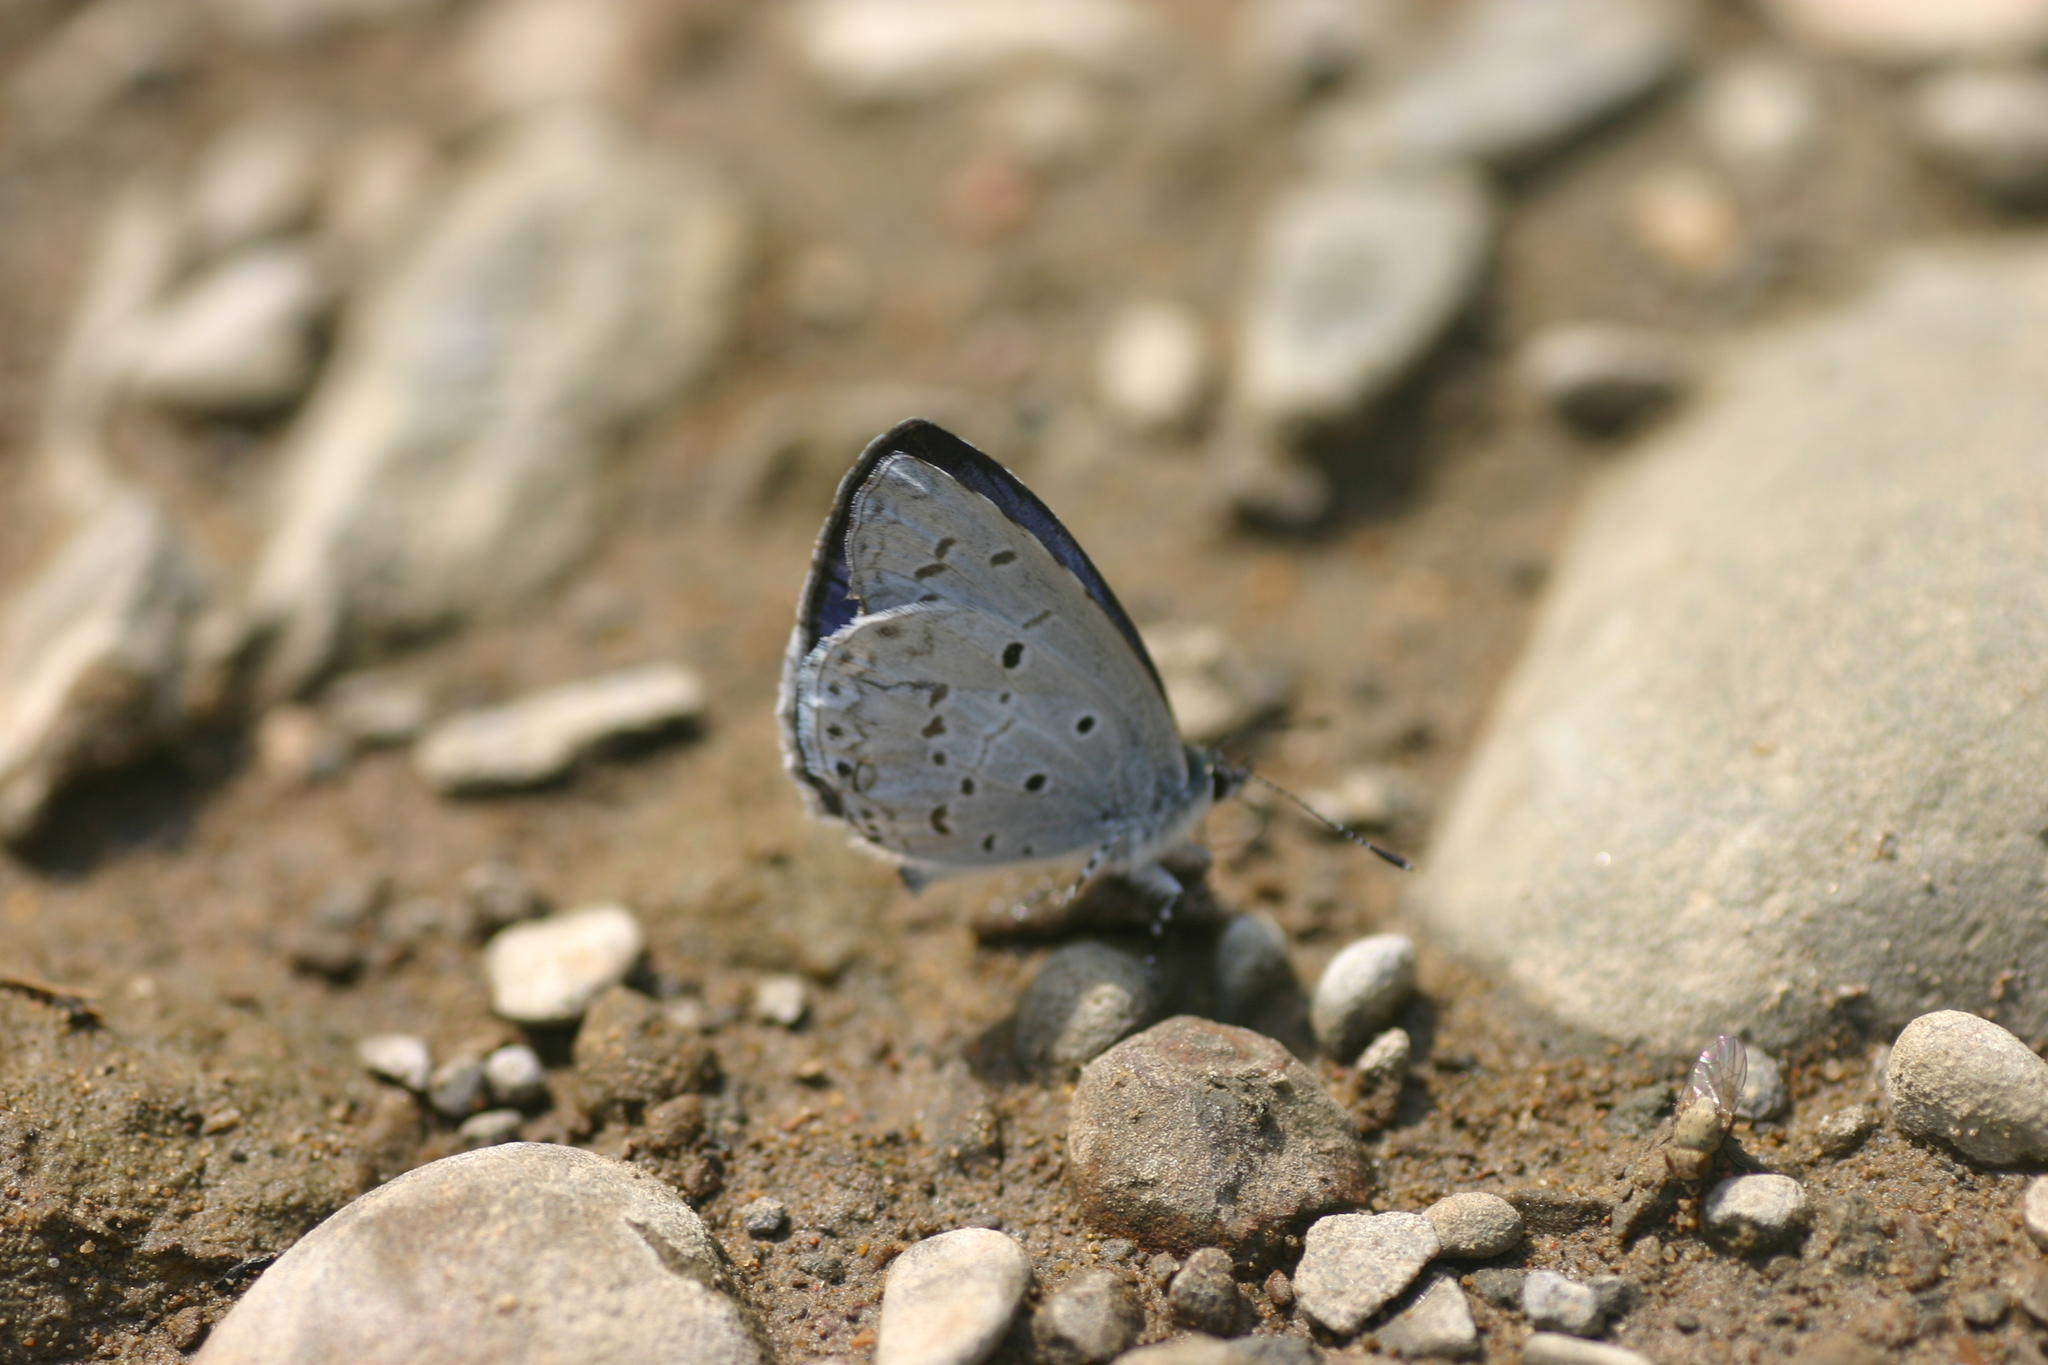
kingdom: Animalia
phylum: Arthropoda
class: Insecta
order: Lepidoptera
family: Lycaenidae
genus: Celastrina
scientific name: Celastrina lavendularis
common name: Plain hedge blue
